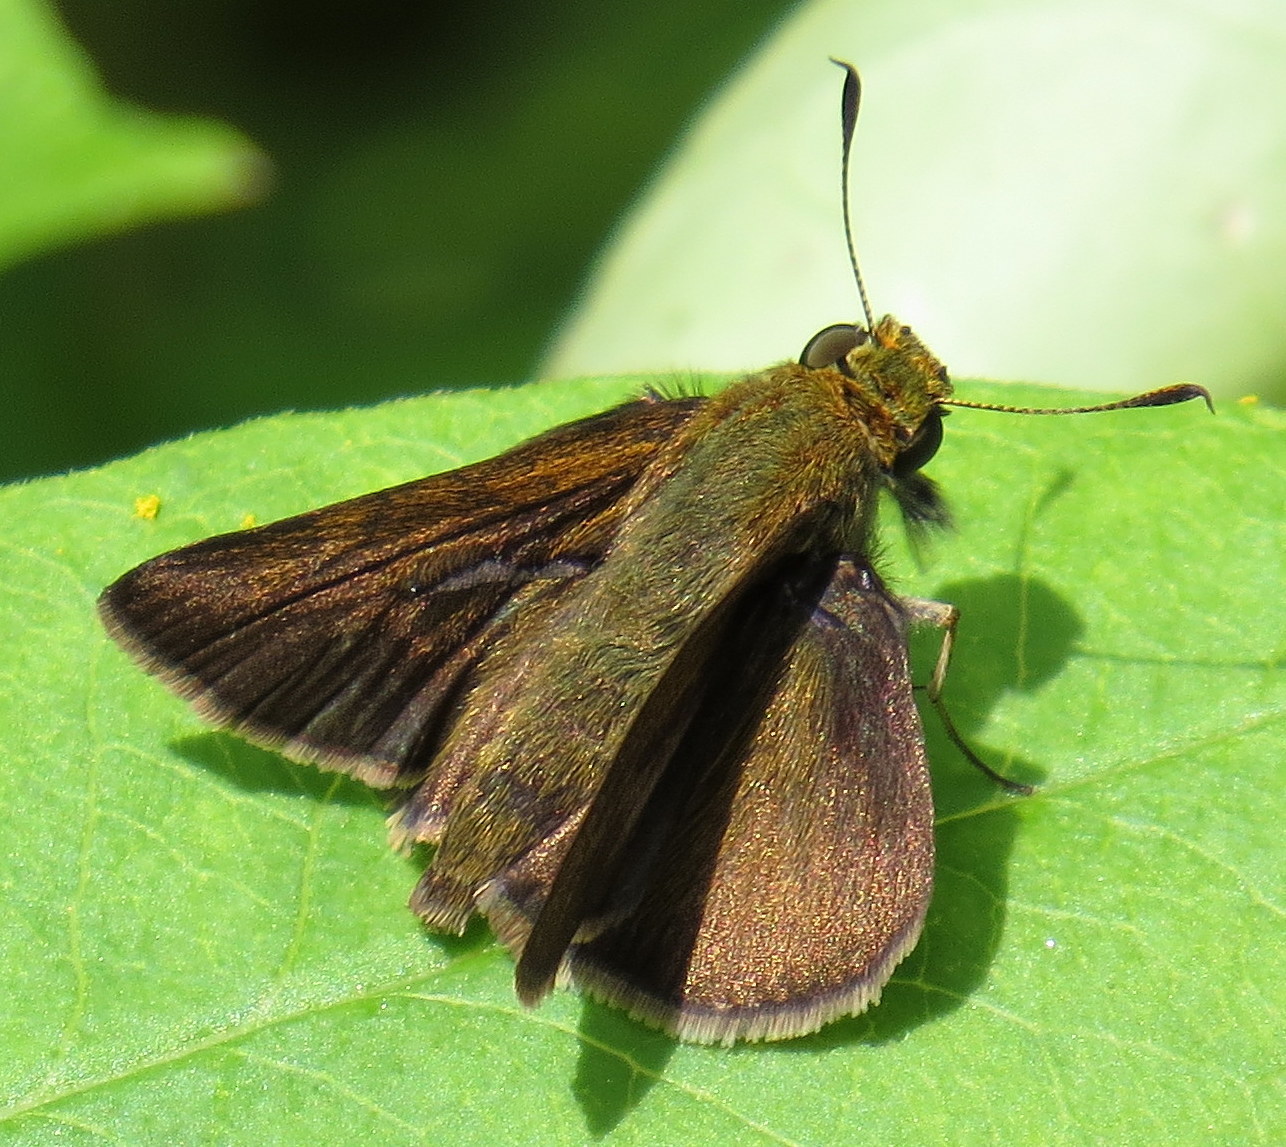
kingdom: Animalia
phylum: Arthropoda
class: Insecta
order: Lepidoptera
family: Hesperiidae
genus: Euphyes
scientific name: Euphyes vestris
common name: Dun skipper
